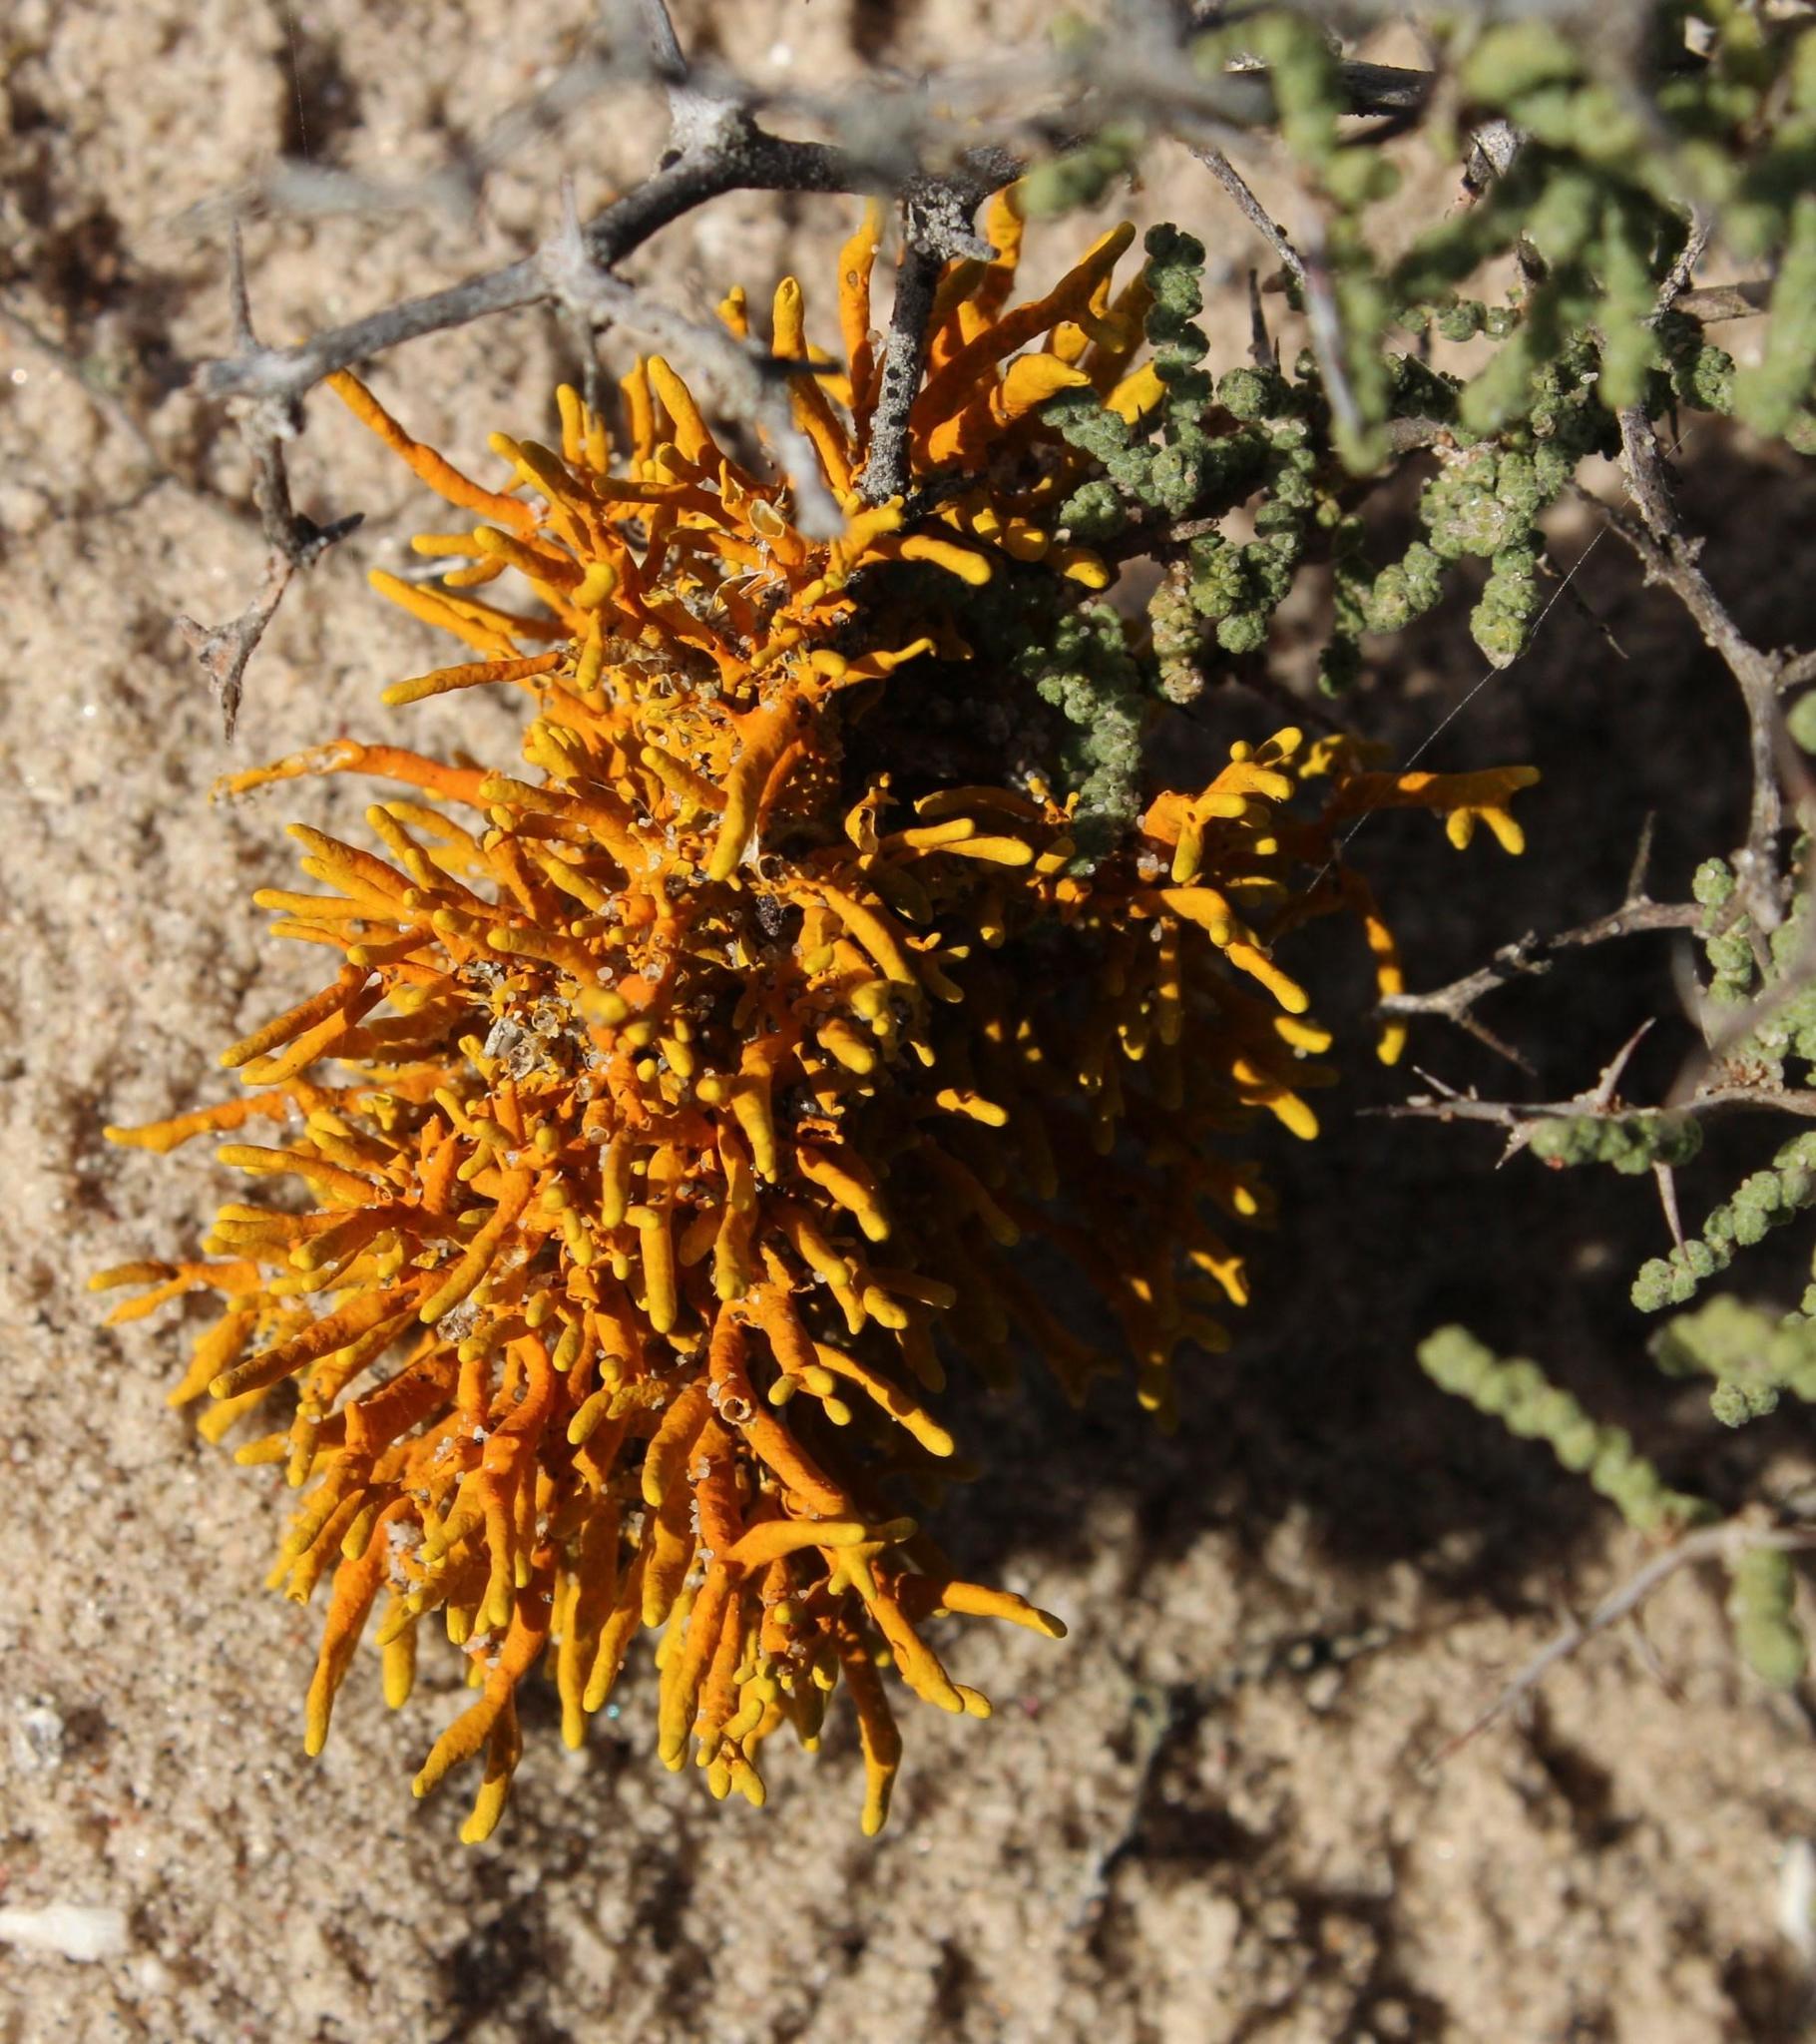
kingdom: Fungi
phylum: Ascomycota
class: Lecanoromycetes
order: Teloschistales
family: Teloschistaceae
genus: Dufourea
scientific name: Dufourea flammea
